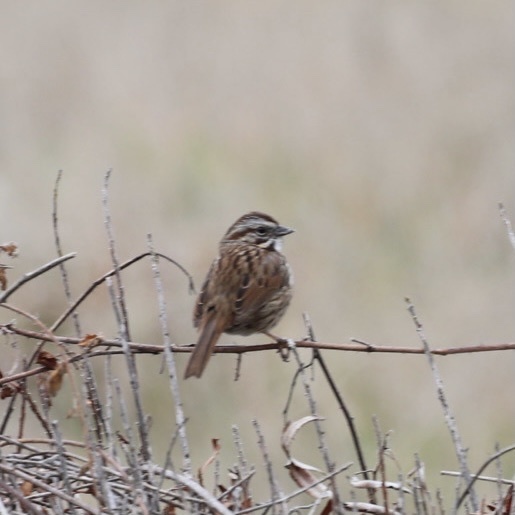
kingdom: Animalia
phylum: Chordata
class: Aves
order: Passeriformes
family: Passerellidae
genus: Melospiza
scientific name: Melospiza melodia
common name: Song sparrow
